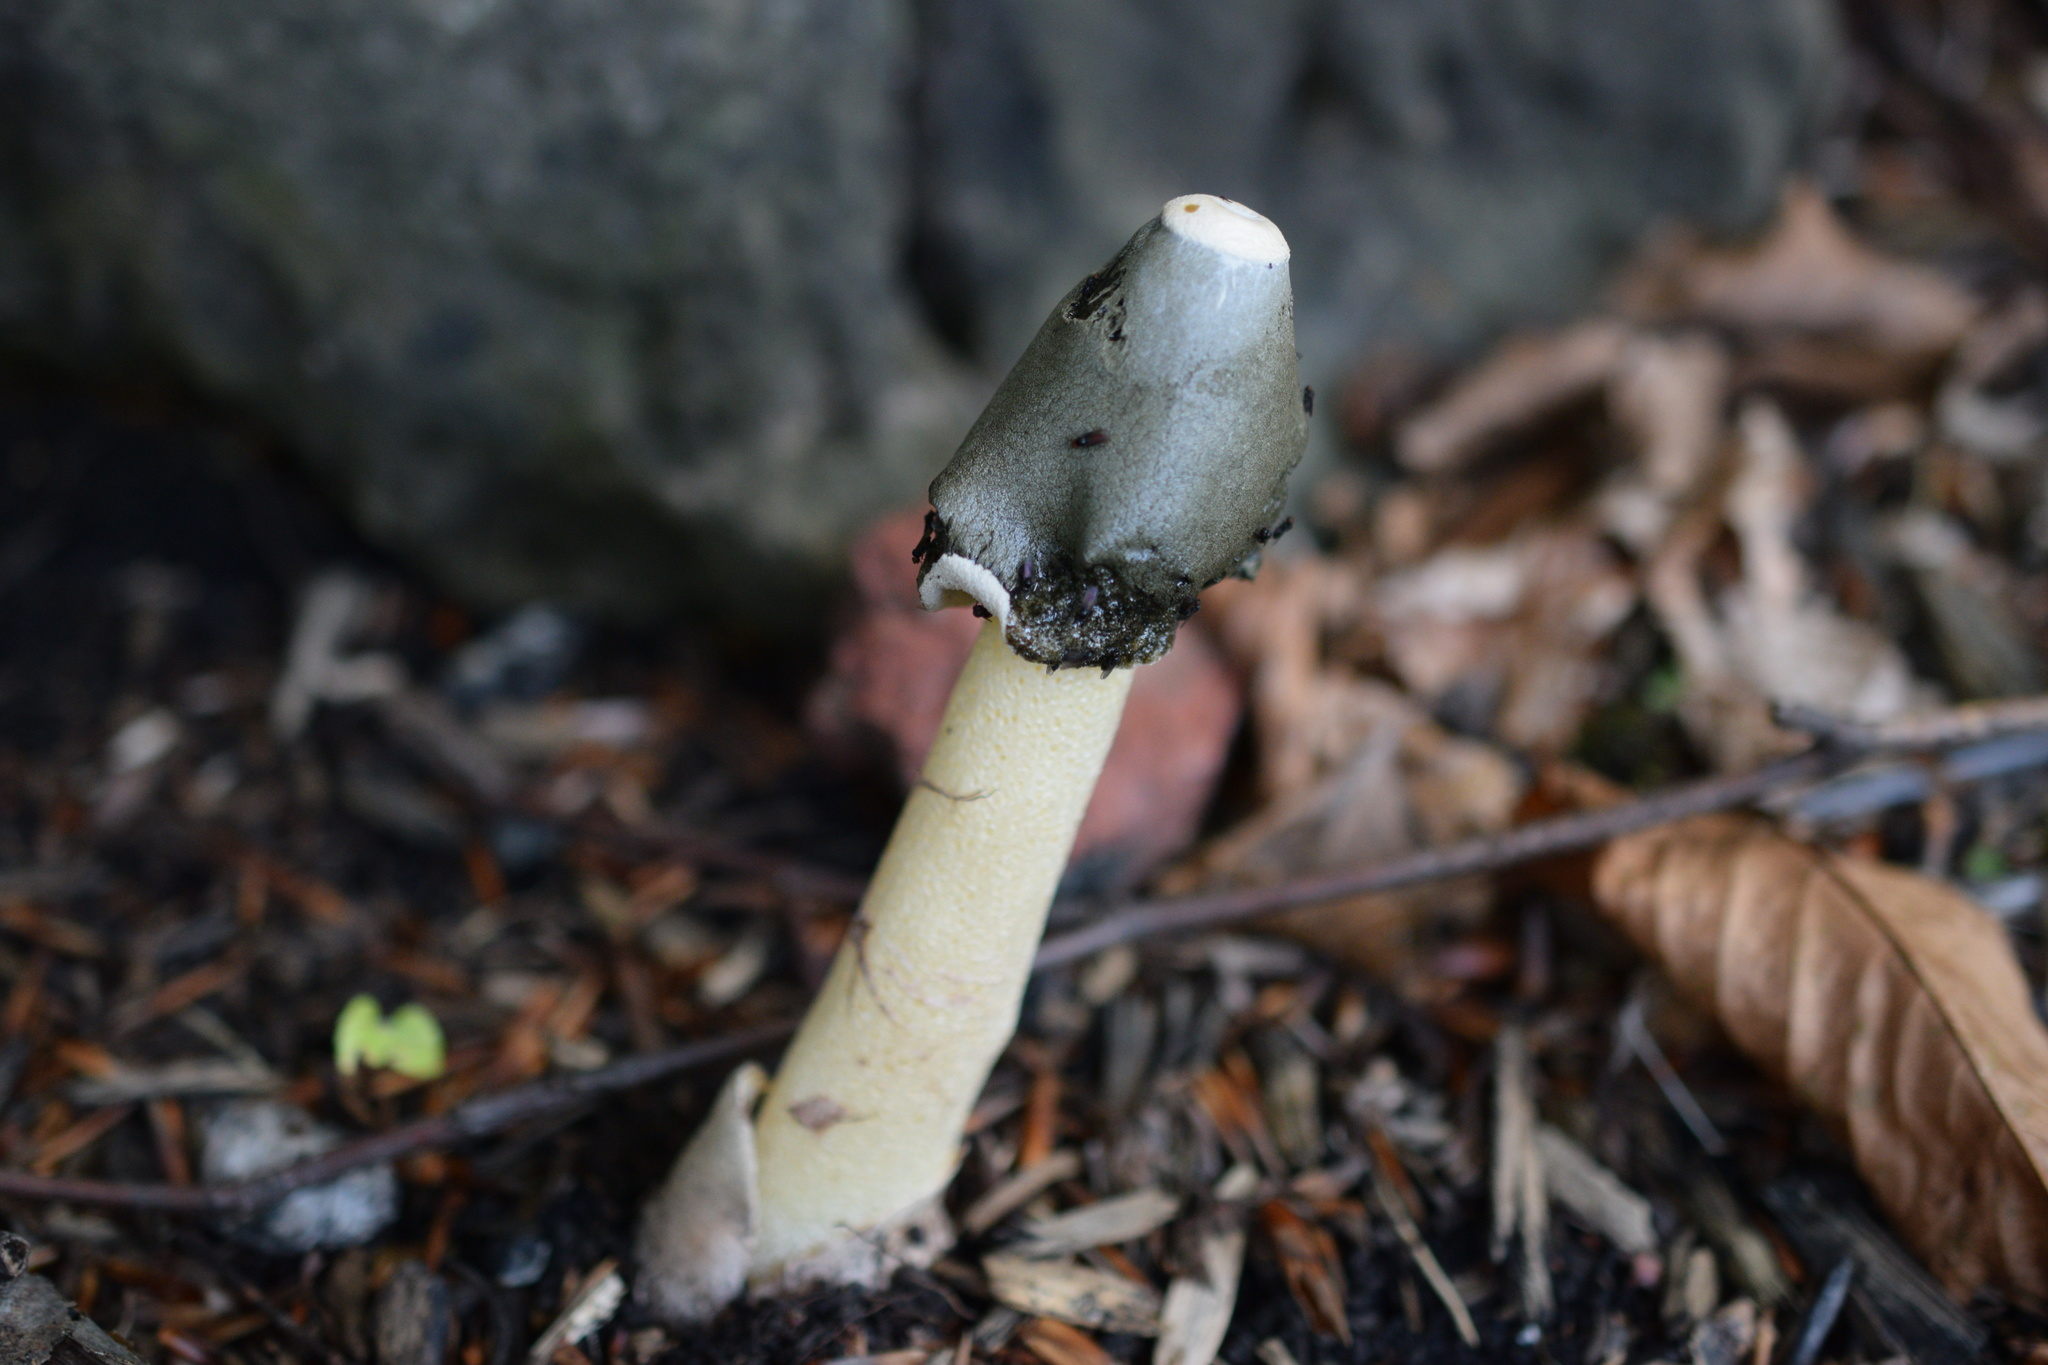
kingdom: Fungi
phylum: Basidiomycota
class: Agaricomycetes
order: Phallales
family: Phallaceae
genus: Phallus
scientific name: Phallus ravenelii
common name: Ravenel's stinkhorn
